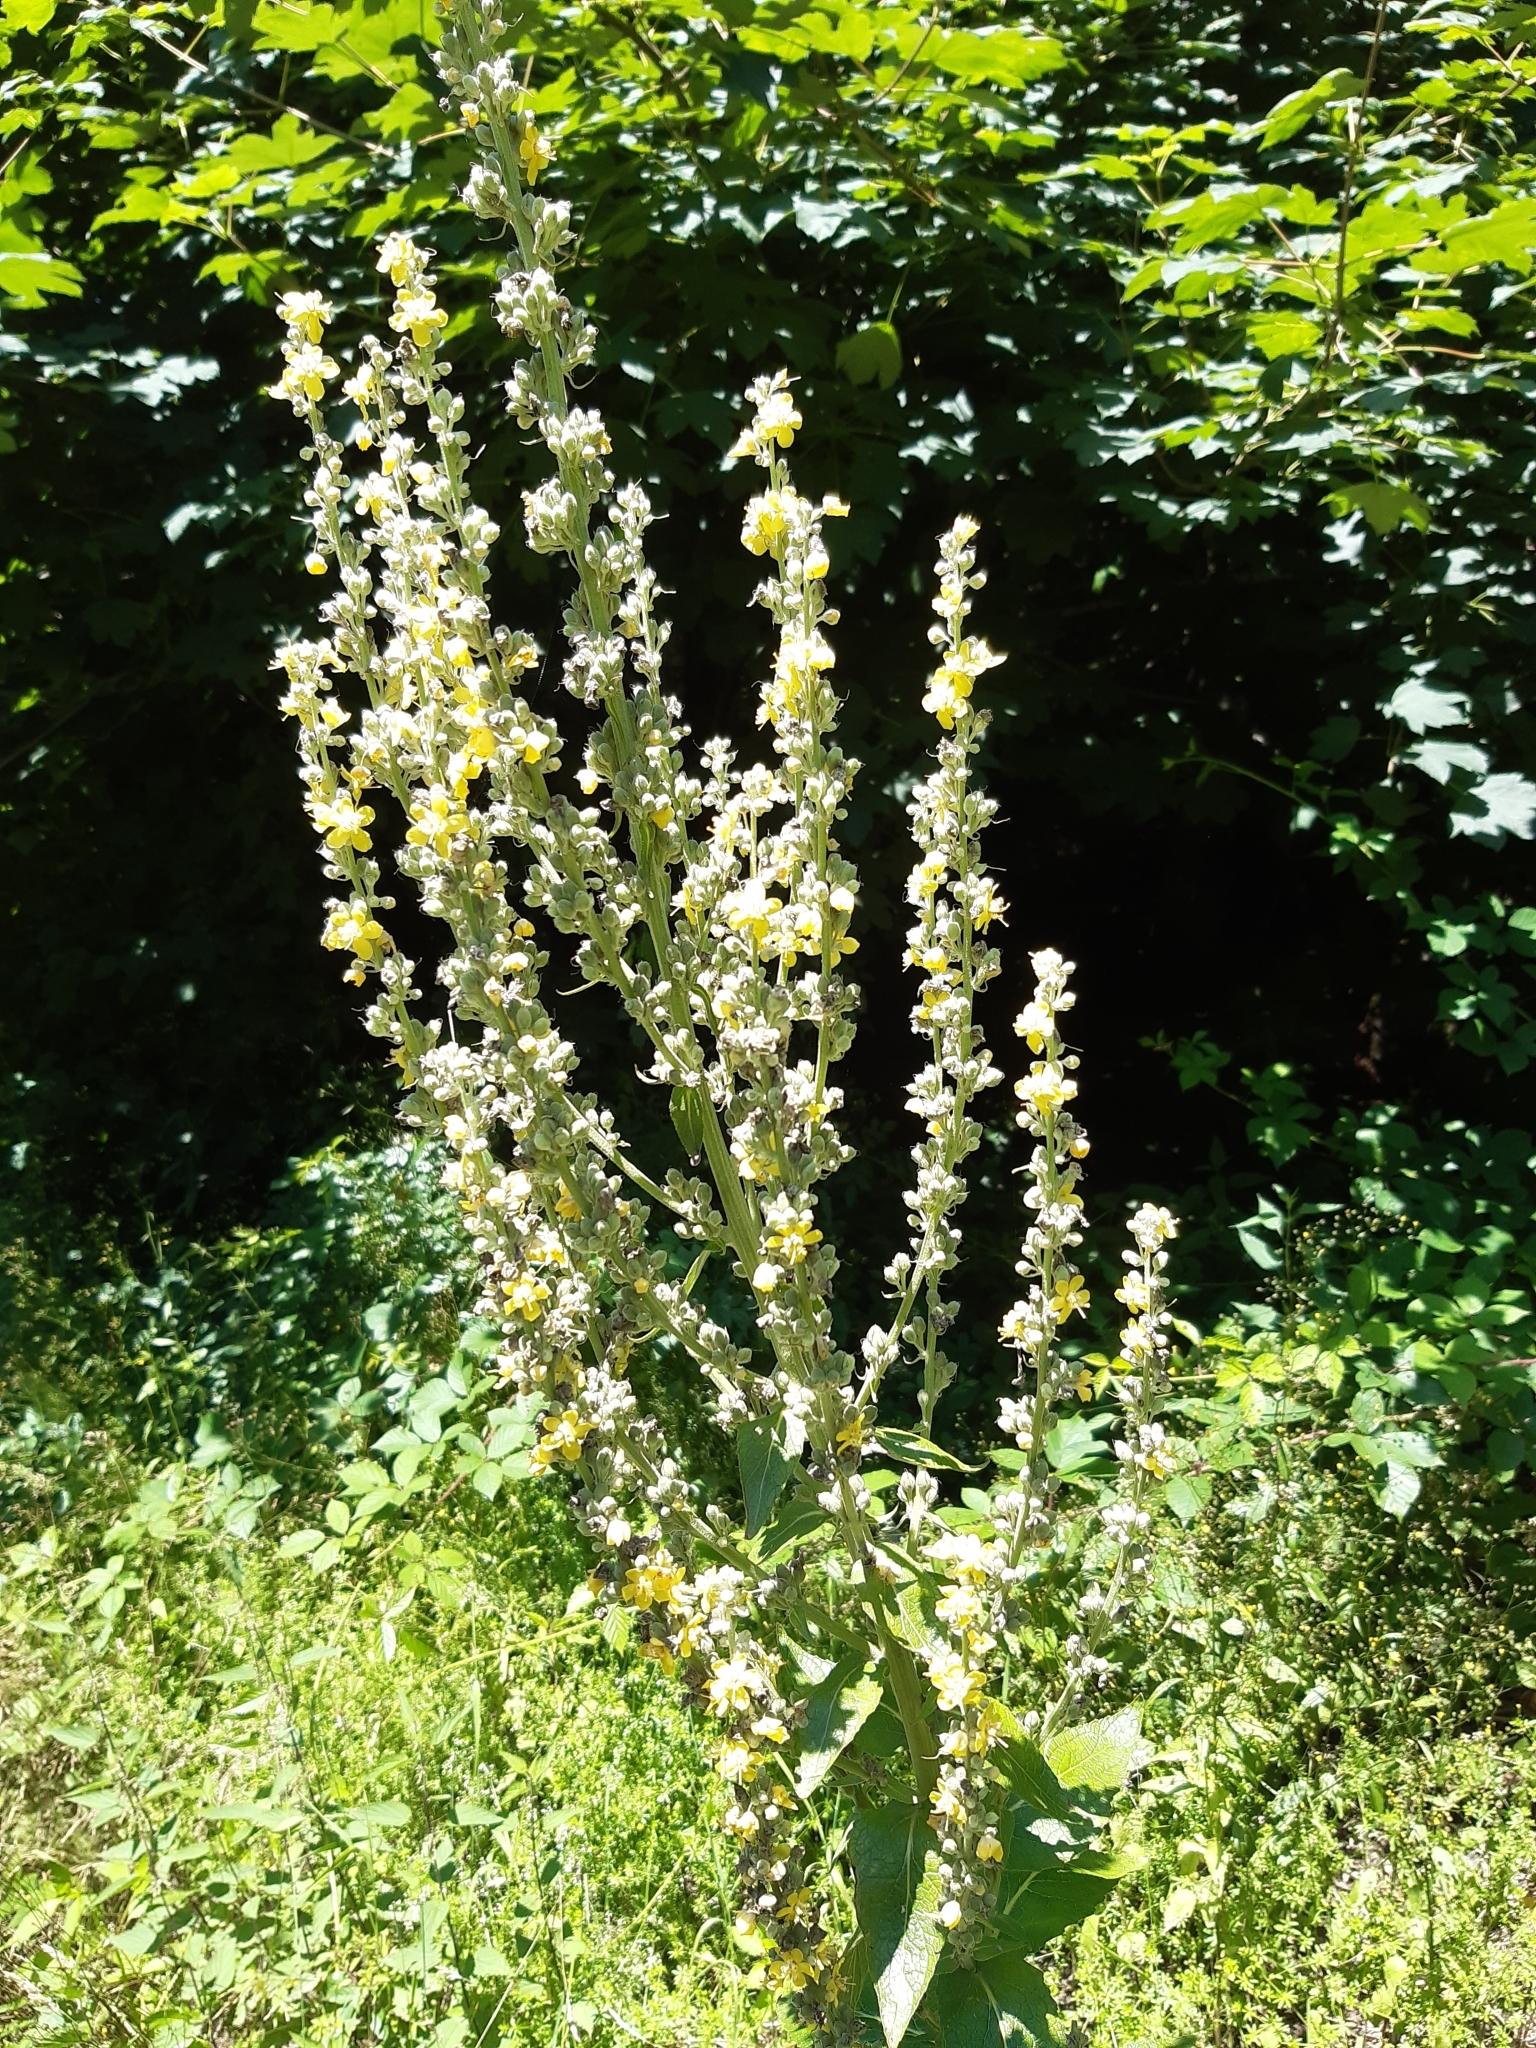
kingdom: Plantae
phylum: Tracheophyta
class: Magnoliopsida
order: Lamiales
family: Scrophulariaceae
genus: Verbascum
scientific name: Verbascum lychnitis
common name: White mullein
